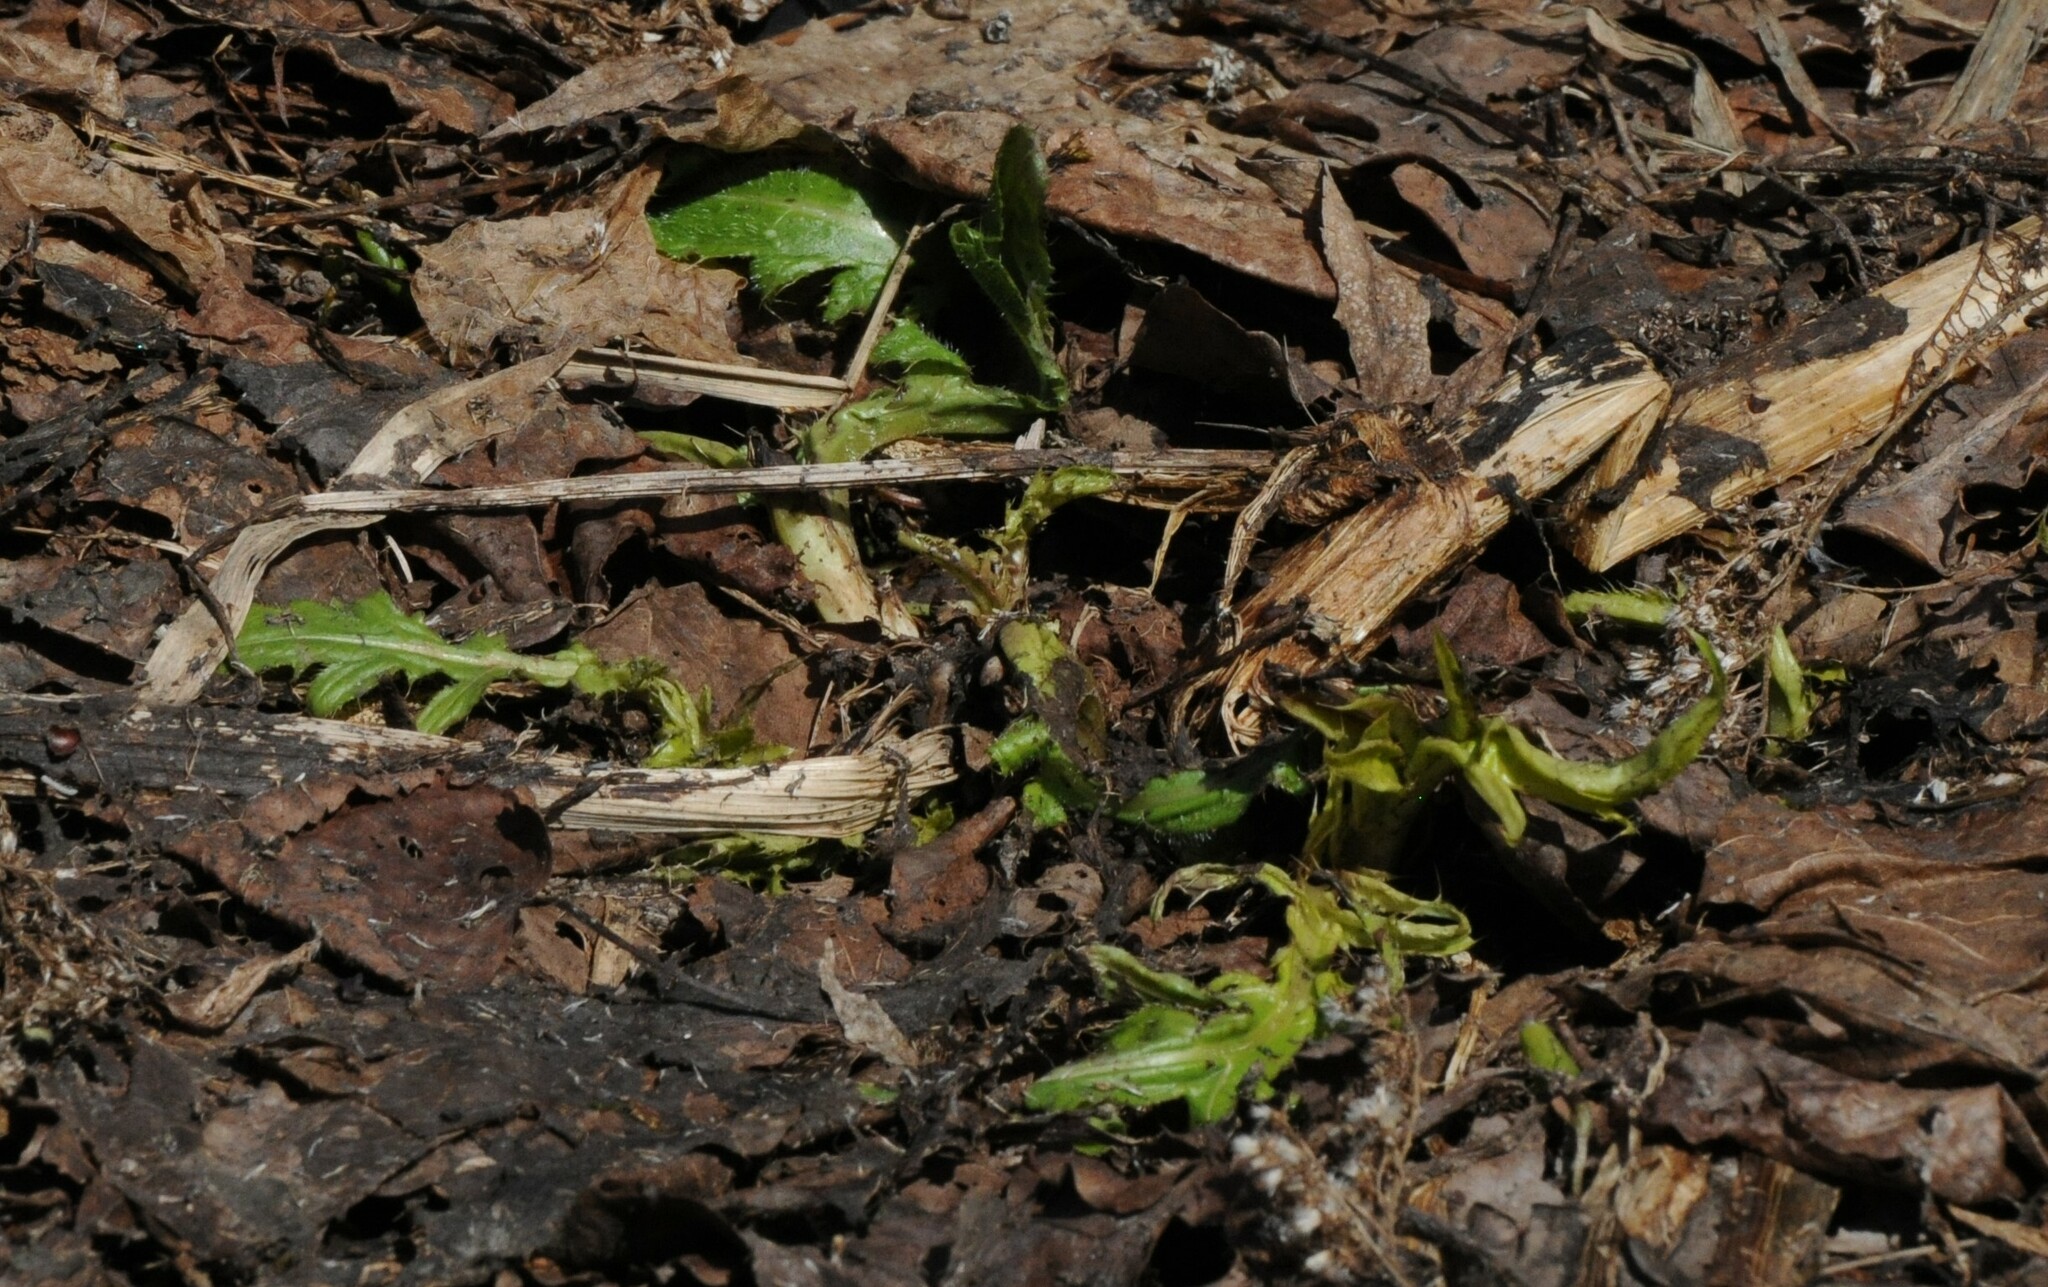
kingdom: Plantae
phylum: Tracheophyta
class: Magnoliopsida
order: Asterales
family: Asteraceae
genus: Cirsium
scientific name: Cirsium oleraceum
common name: Cabbage thistle
